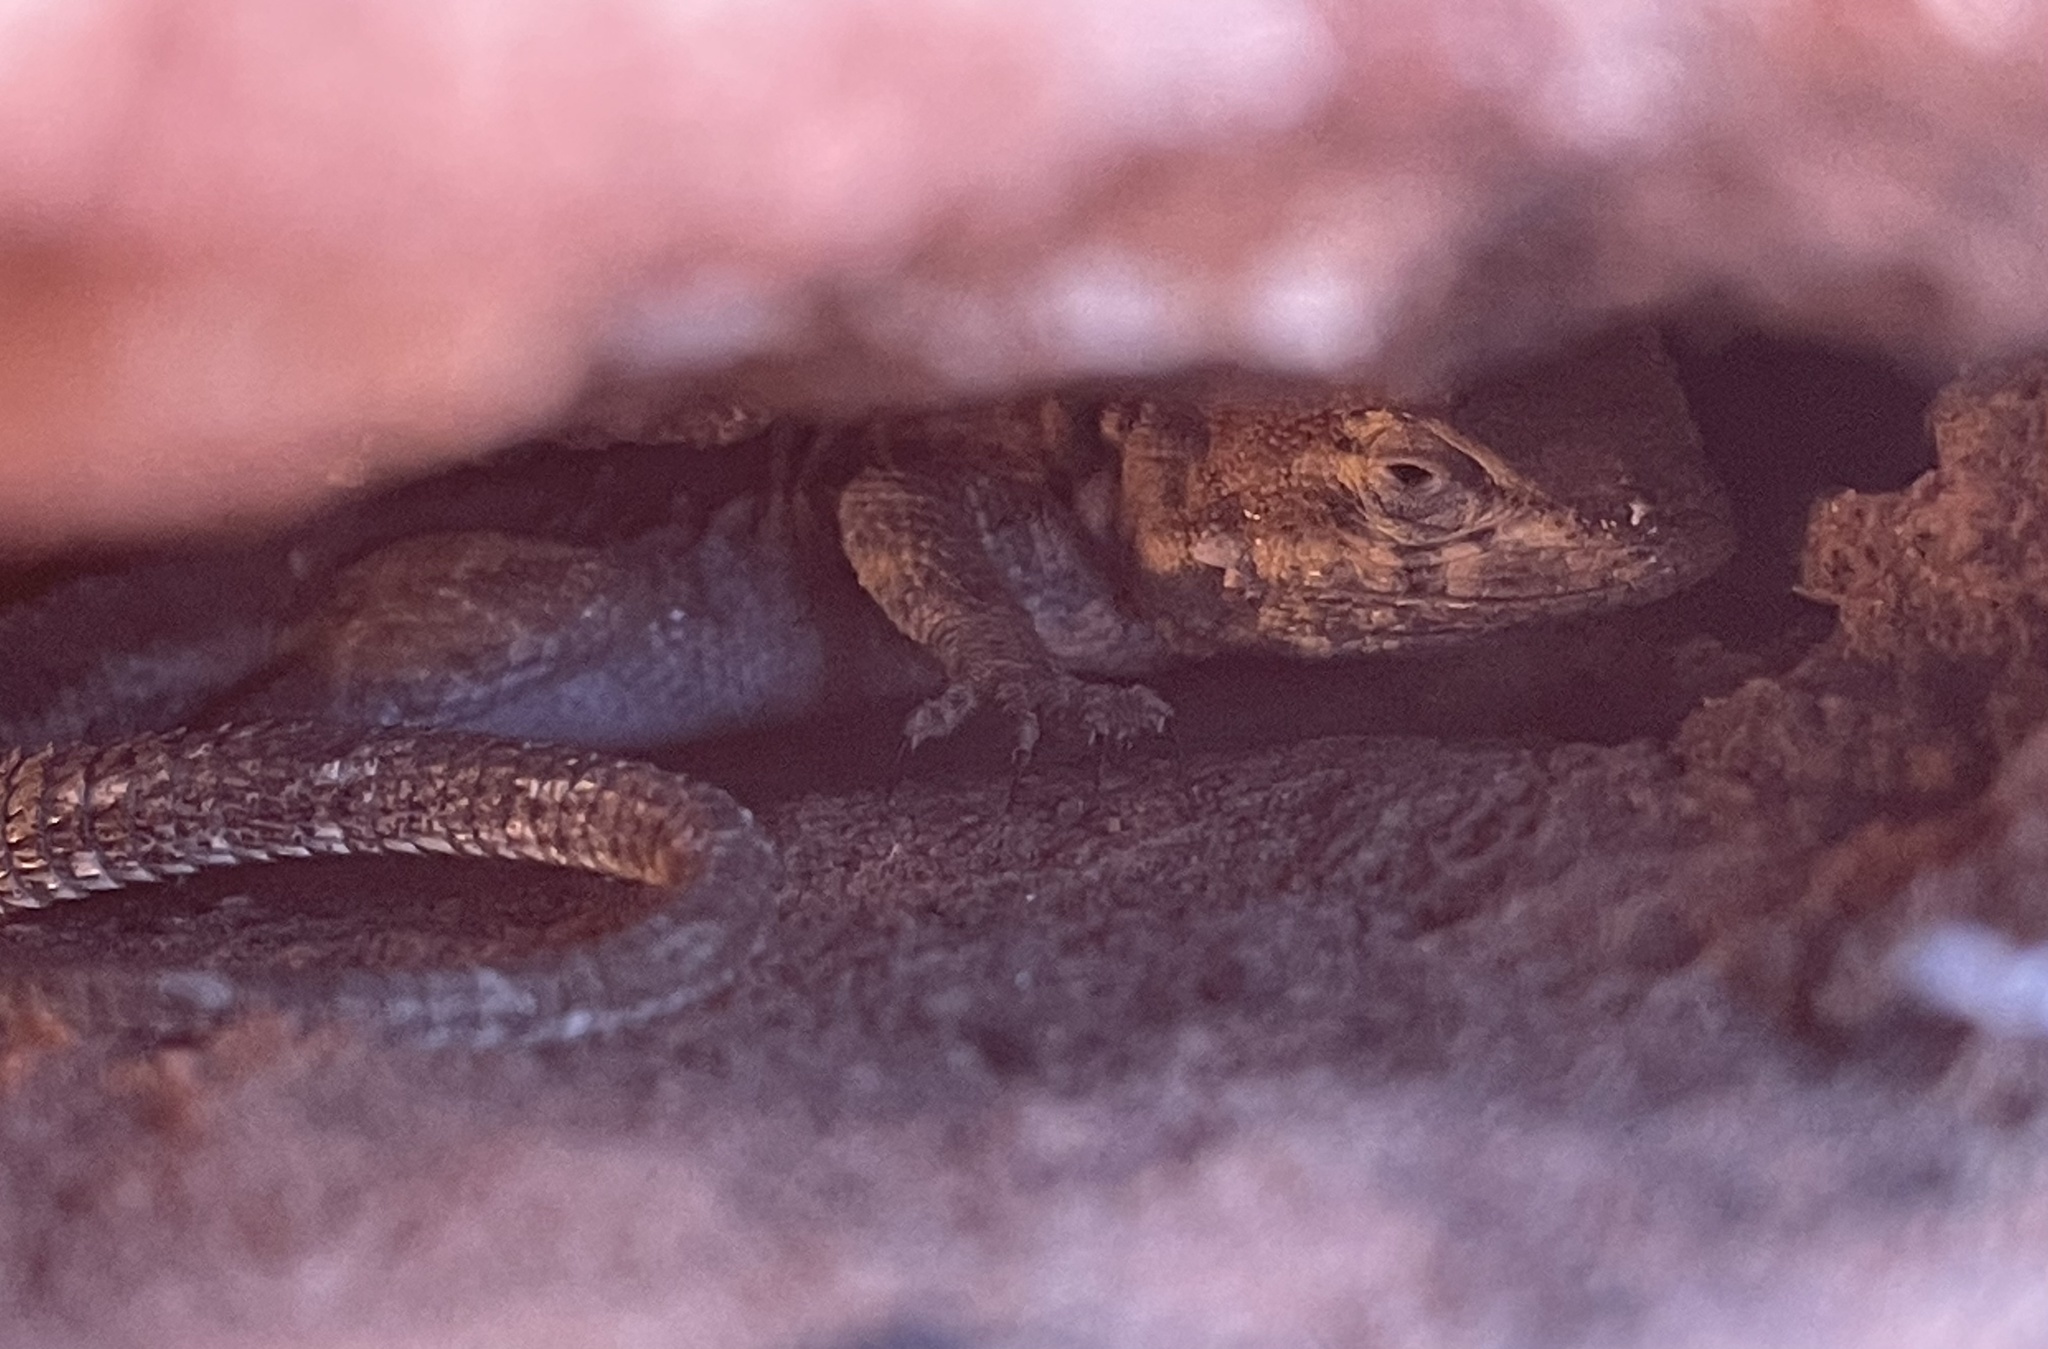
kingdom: Animalia
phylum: Chordata
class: Squamata
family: Phrynosomatidae
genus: Uta
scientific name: Uta stansburiana
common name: Side-blotched lizard
